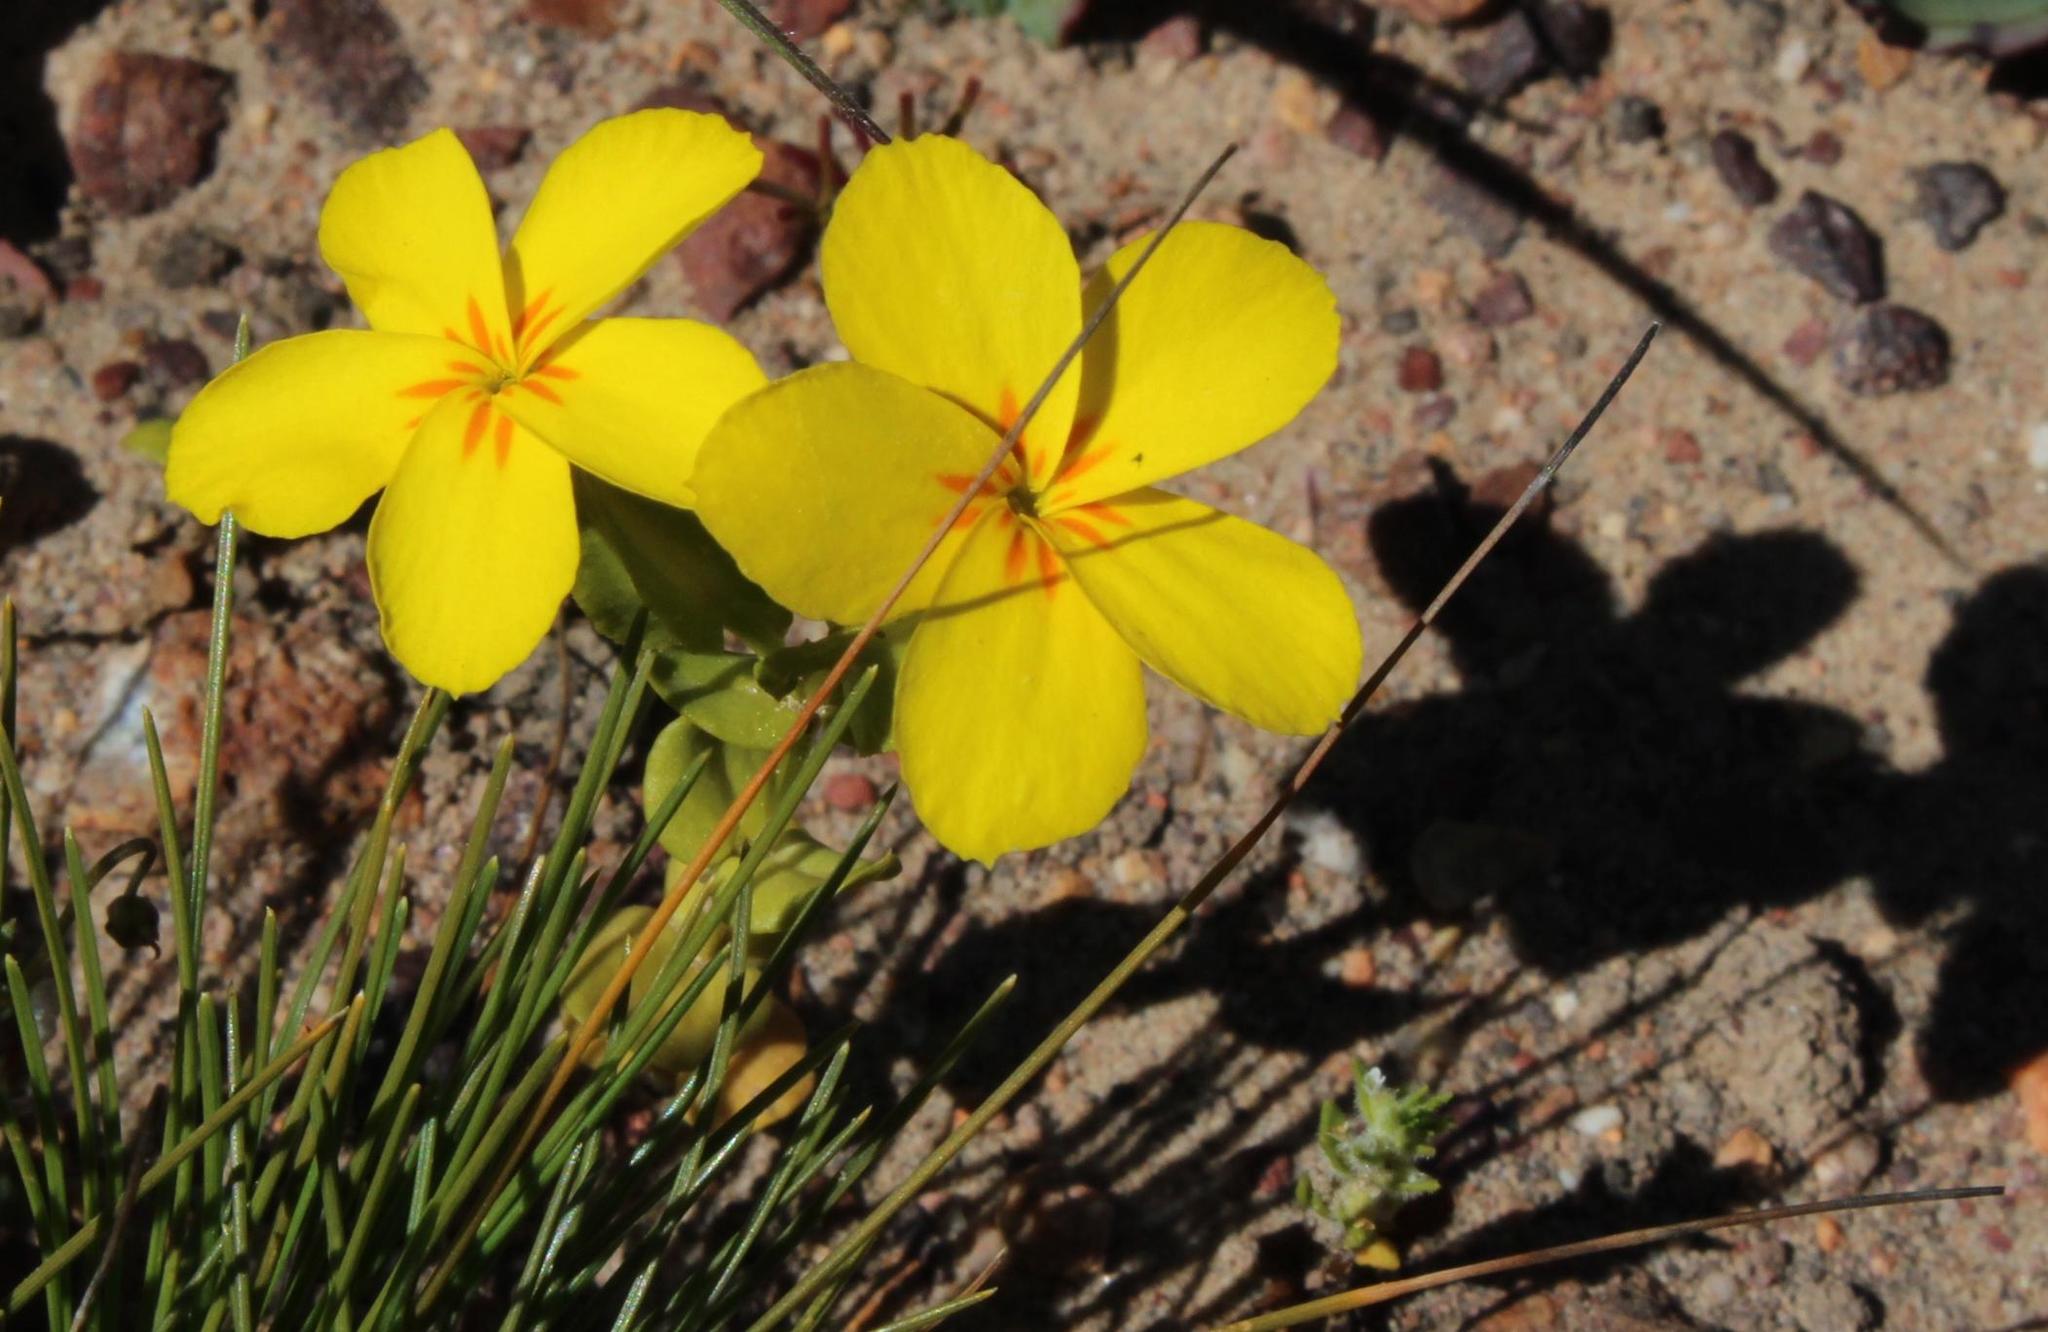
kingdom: Plantae
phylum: Tracheophyta
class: Magnoliopsida
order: Gentianales
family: Gentianaceae
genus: Sebaea
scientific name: Sebaea exacoides
